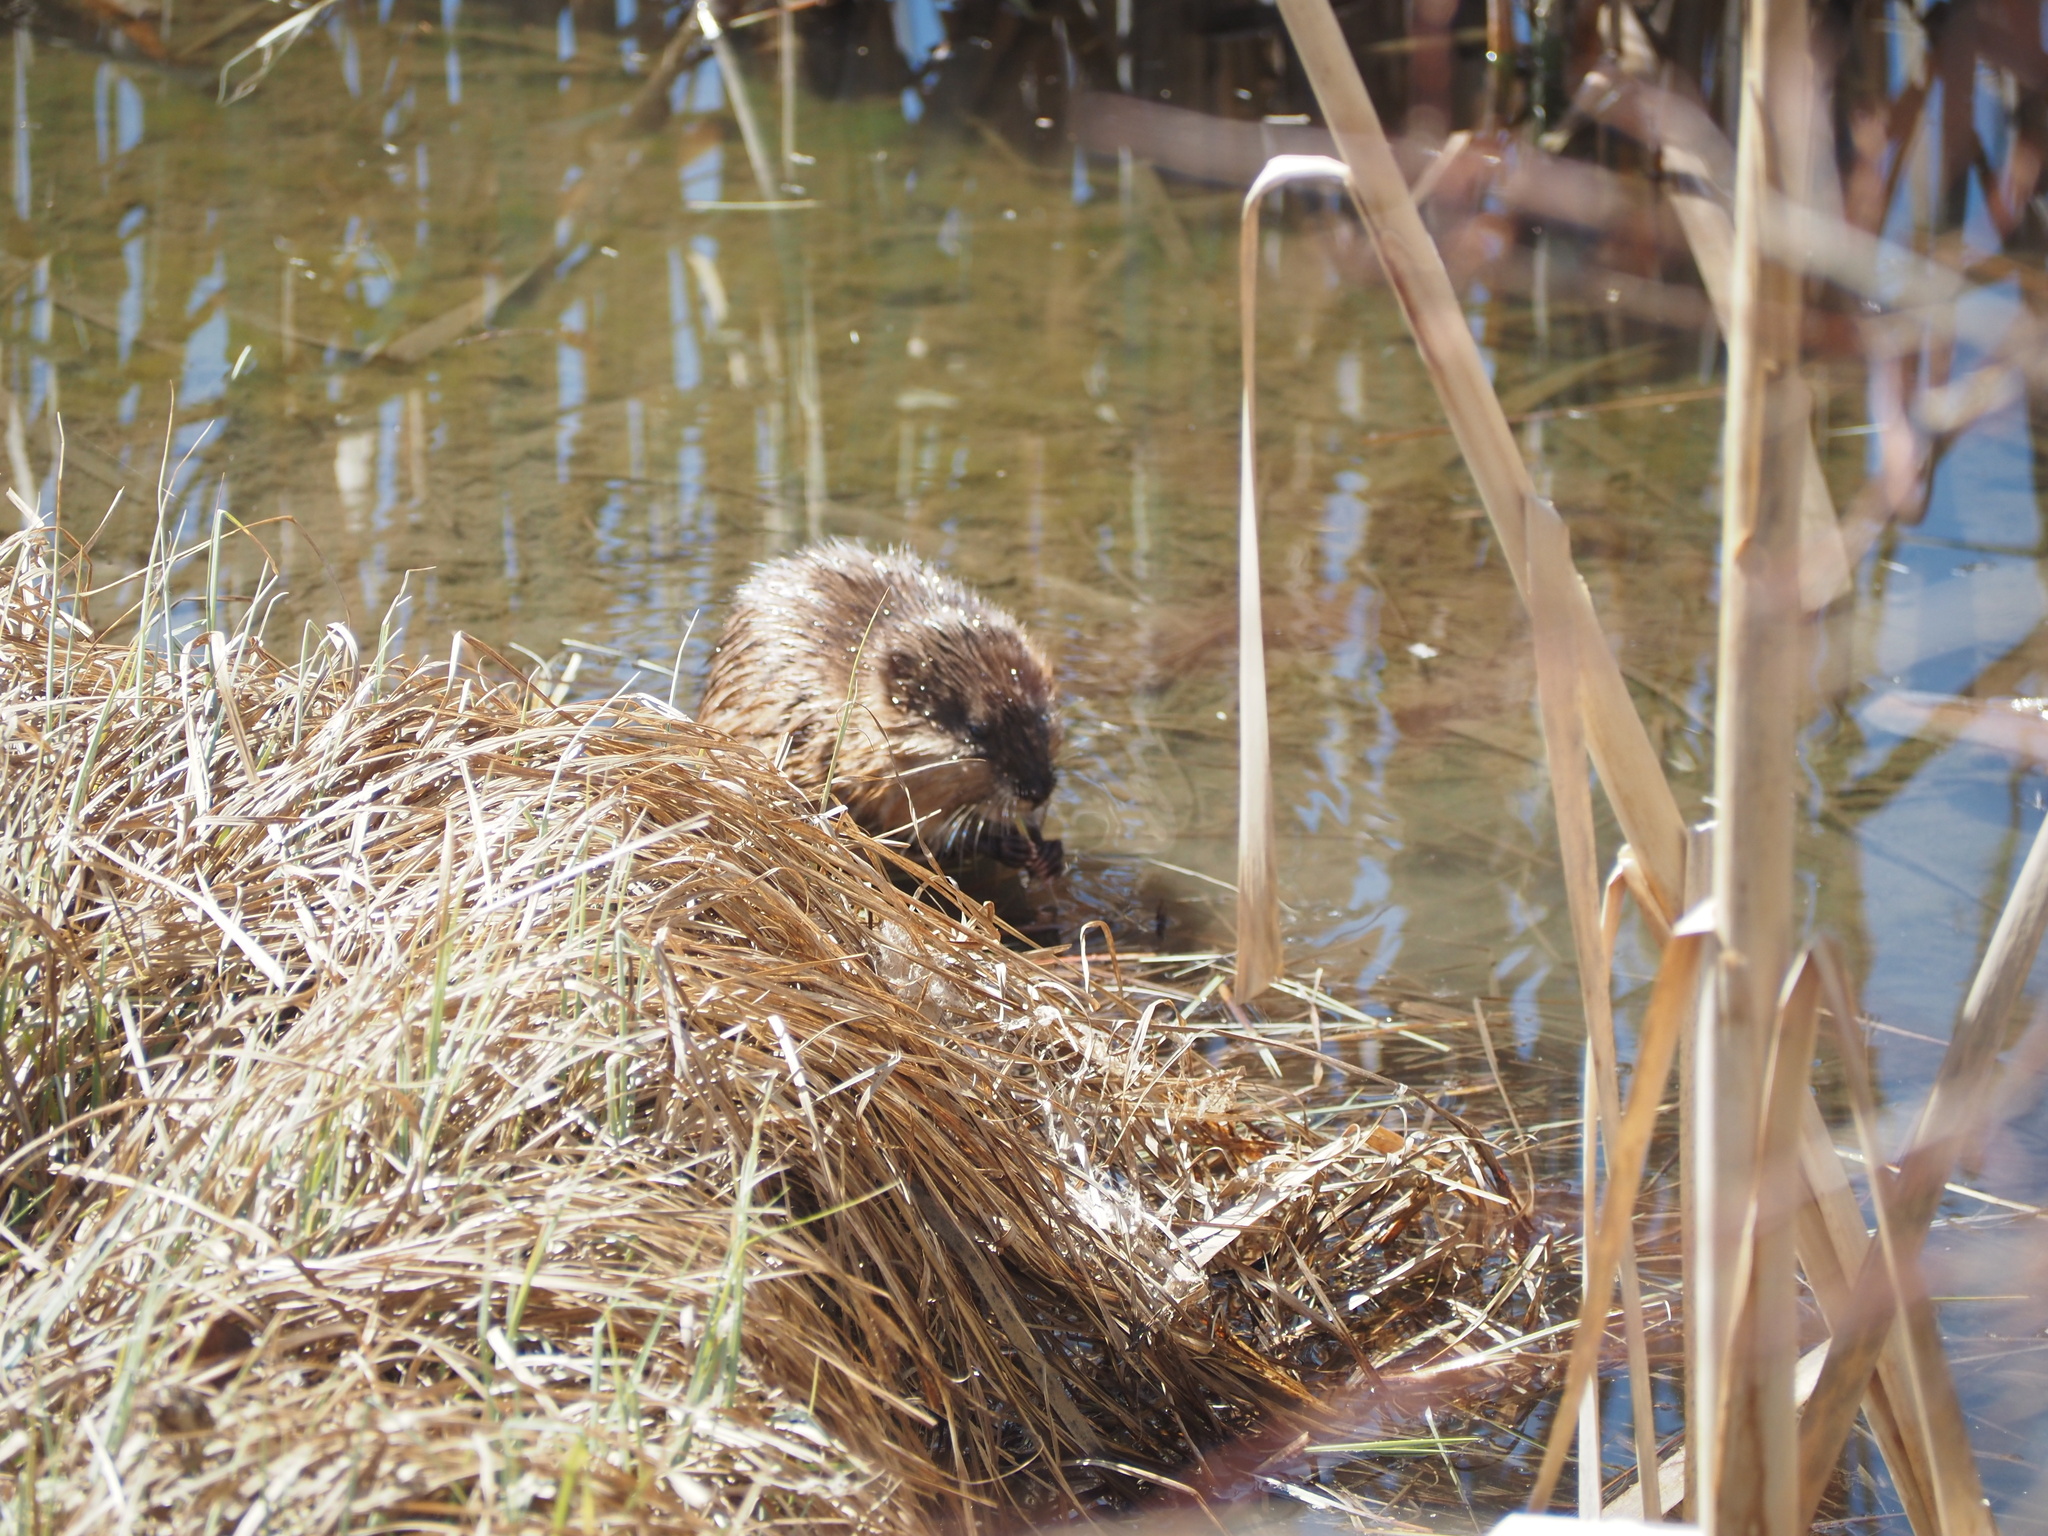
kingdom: Animalia
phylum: Chordata
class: Mammalia
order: Rodentia
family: Cricetidae
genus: Ondatra
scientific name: Ondatra zibethicus
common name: Muskrat
